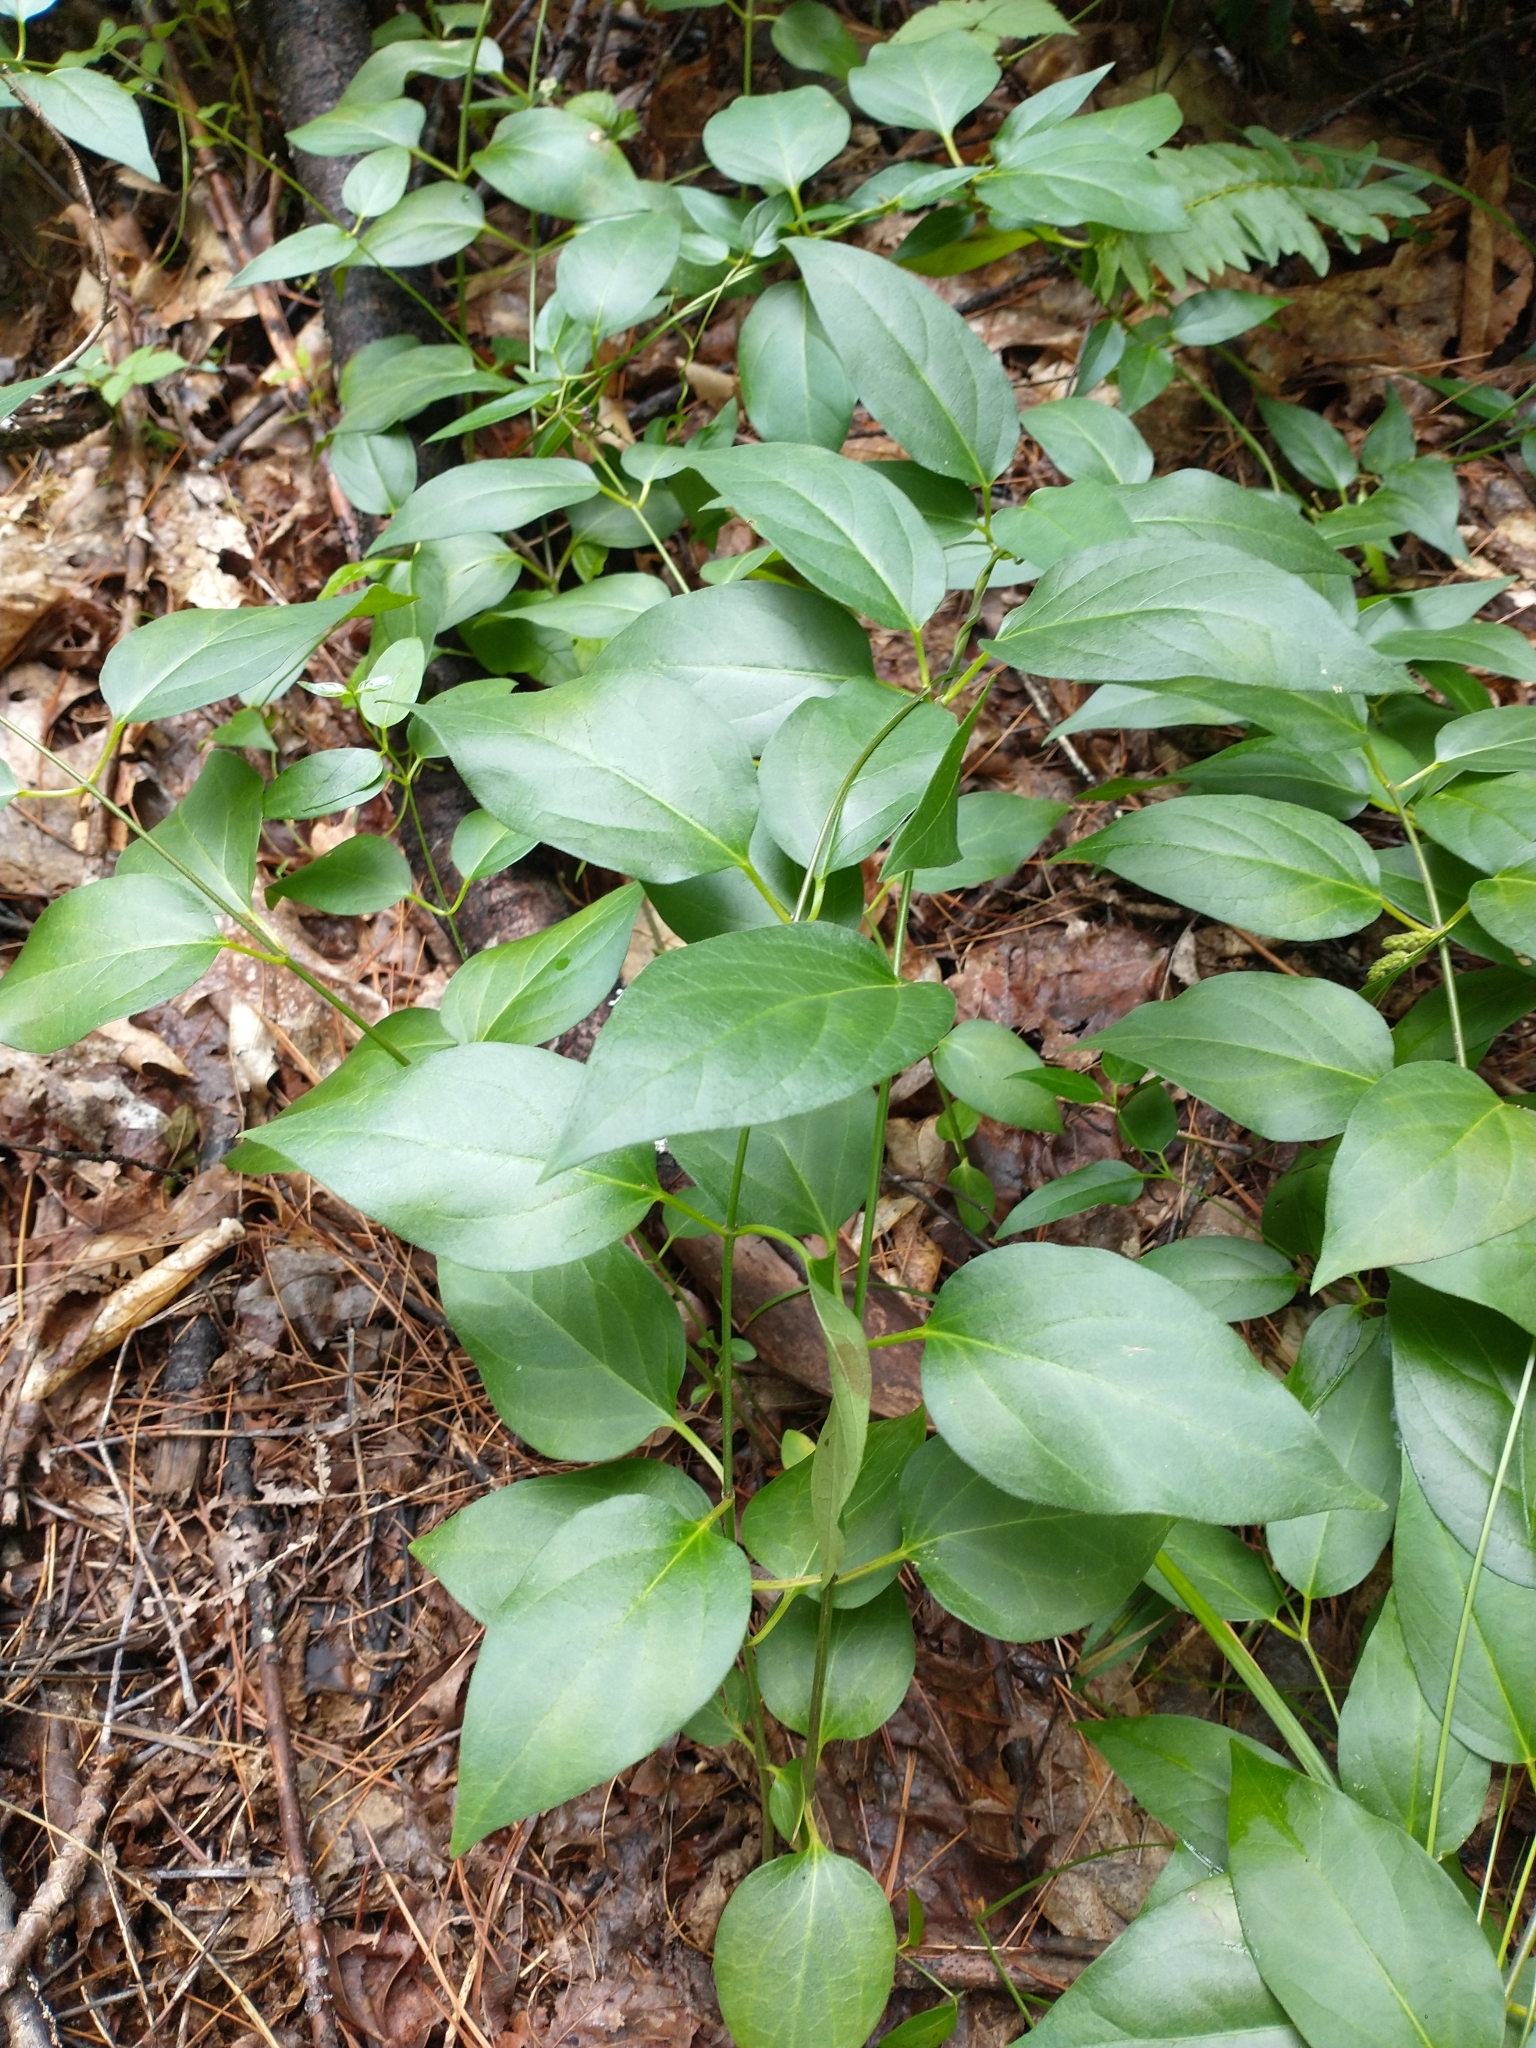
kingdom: Plantae
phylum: Tracheophyta
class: Magnoliopsida
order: Gentianales
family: Apocynaceae
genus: Vincetoxicum
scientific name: Vincetoxicum nigrum
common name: Black swallow-wort
